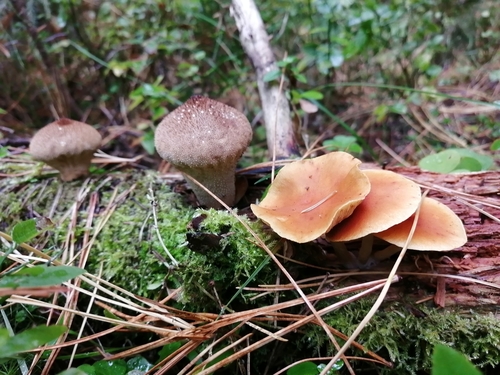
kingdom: Fungi
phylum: Basidiomycota
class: Agaricomycetes
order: Agaricales
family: Hymenogastraceae
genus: Gymnopilus
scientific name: Gymnopilus penetrans
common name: Common rustgill
